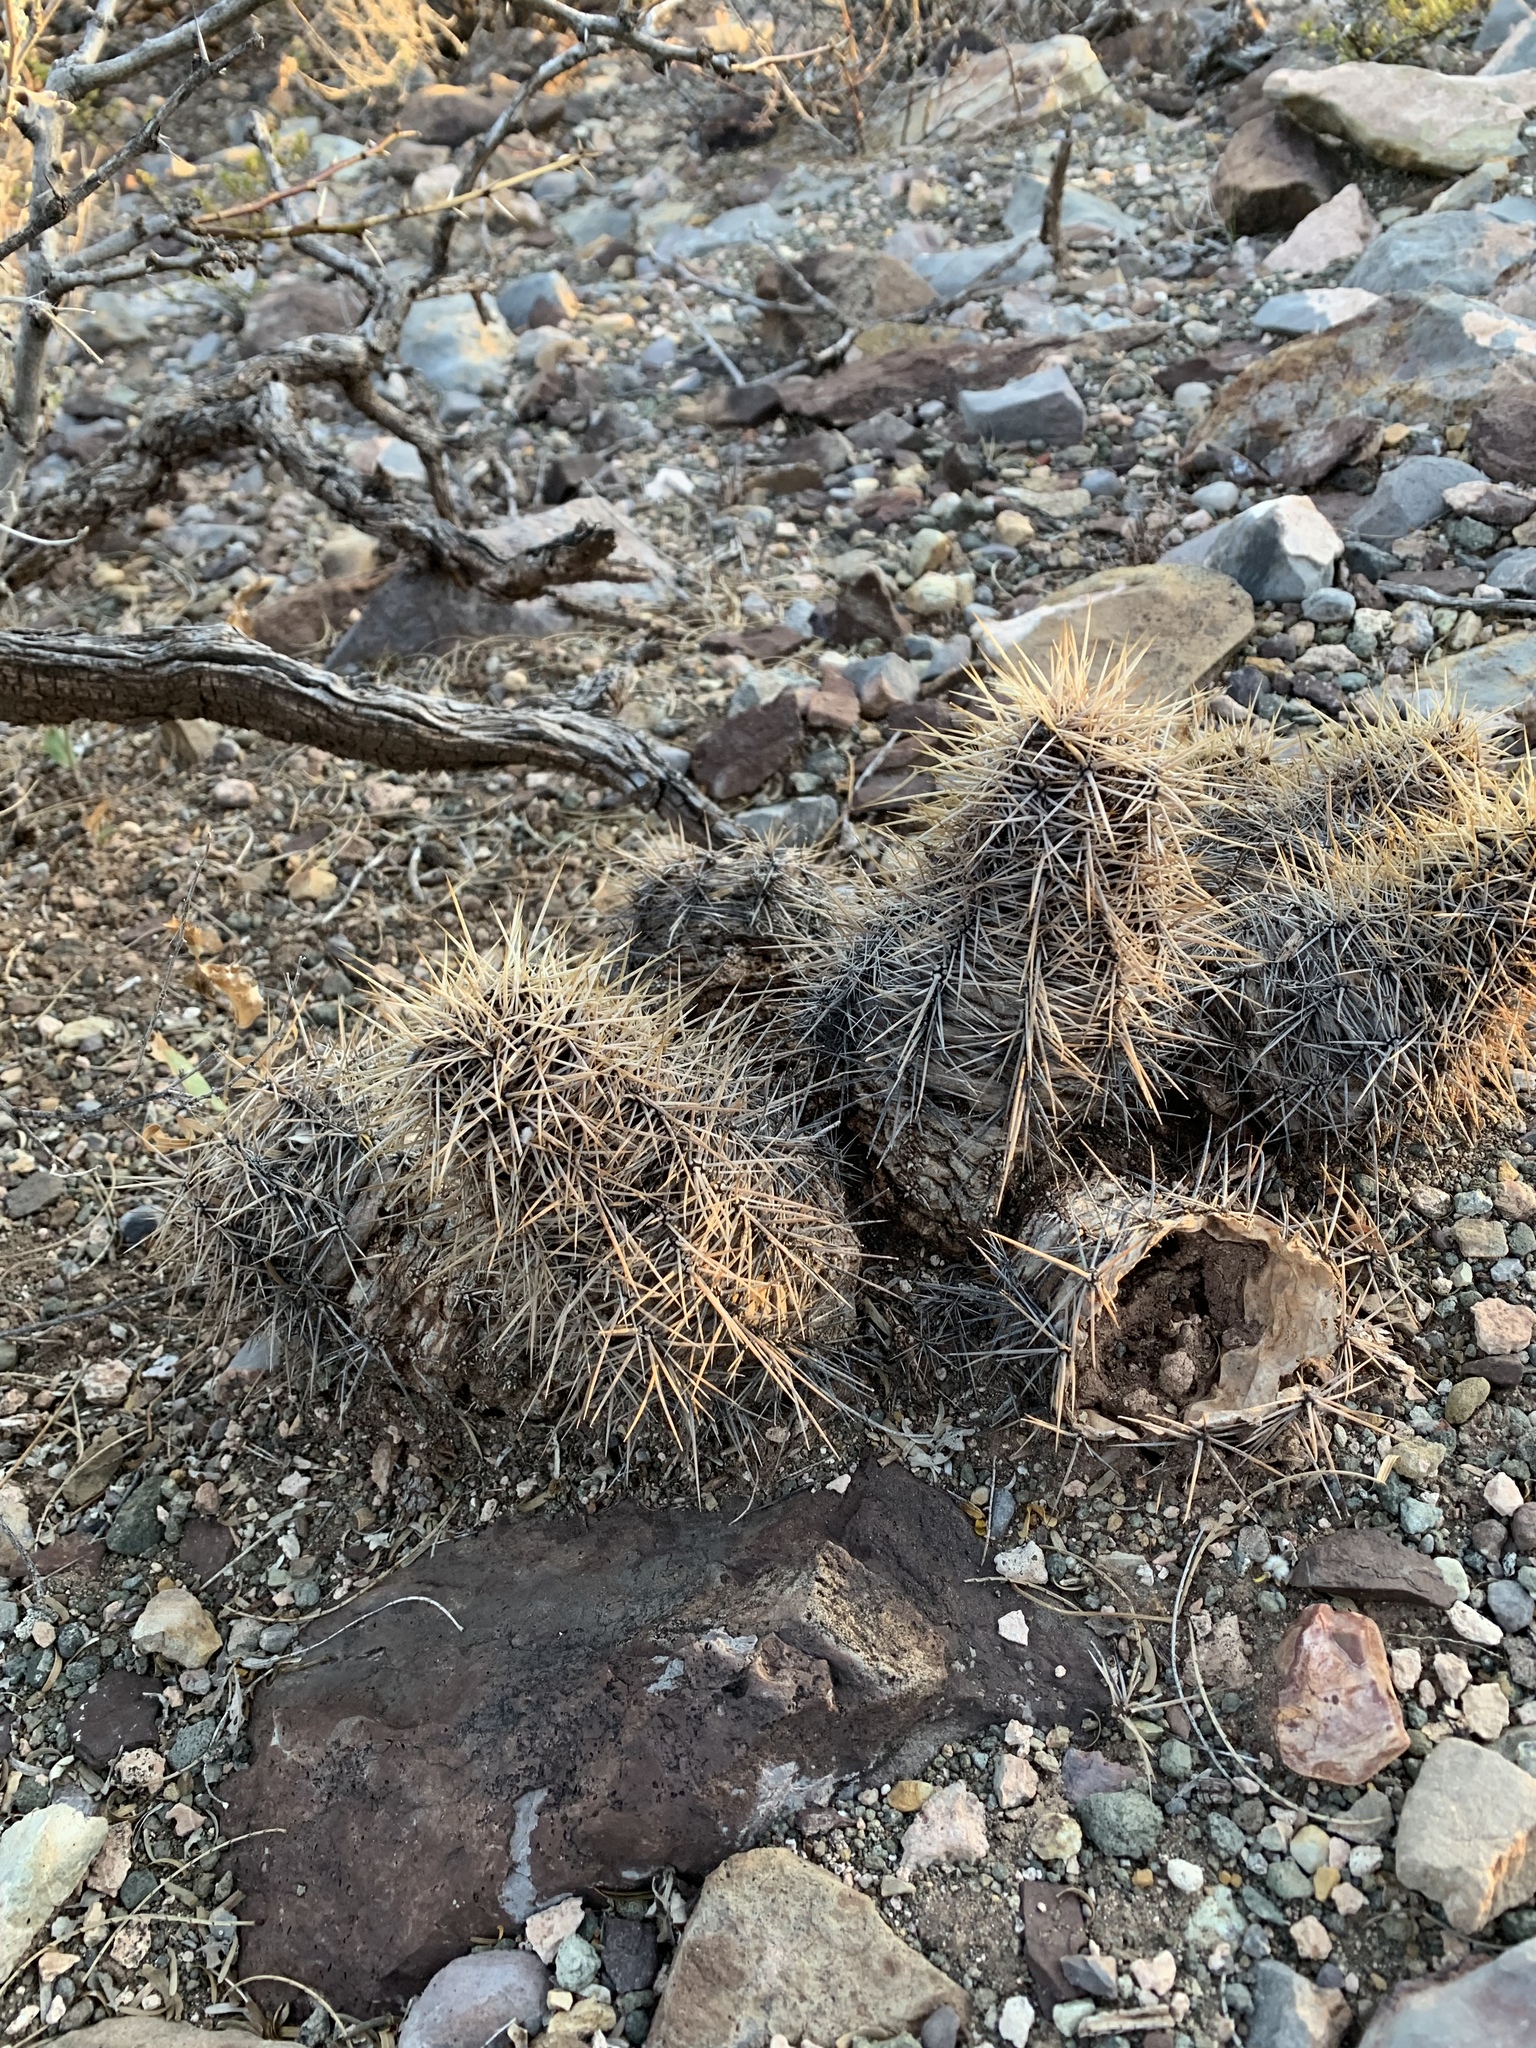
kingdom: Plantae
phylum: Tracheophyta
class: Magnoliopsida
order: Caryophyllales
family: Cactaceae
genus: Echinocereus
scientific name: Echinocereus coccineus
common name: Scarlet hedgehog cactus
